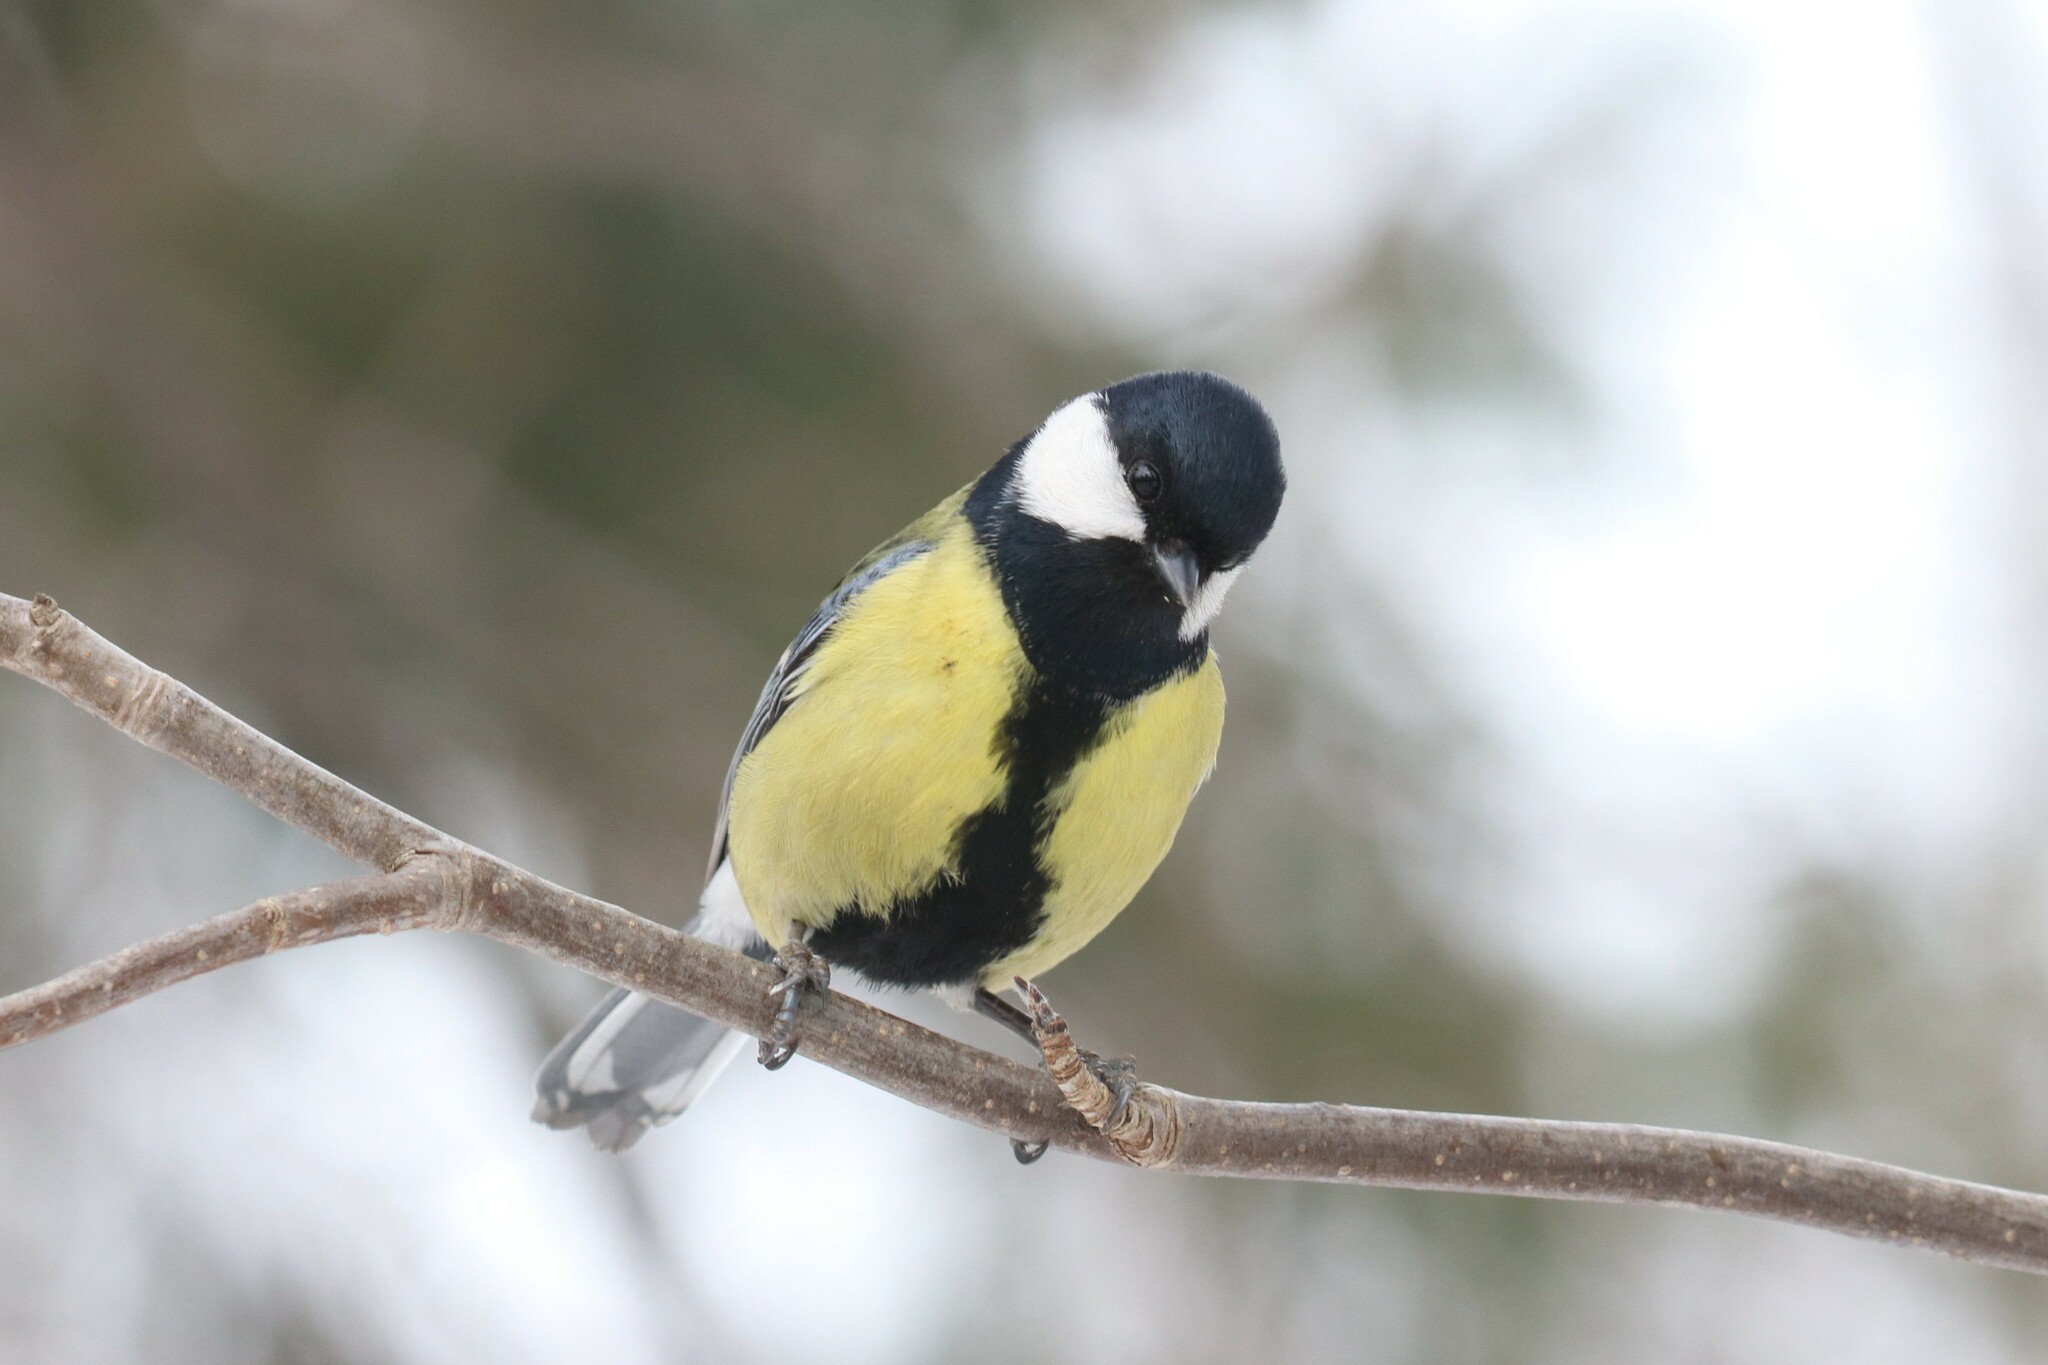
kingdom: Animalia
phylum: Chordata
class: Aves
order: Passeriformes
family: Paridae
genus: Parus
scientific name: Parus major
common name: Great tit
